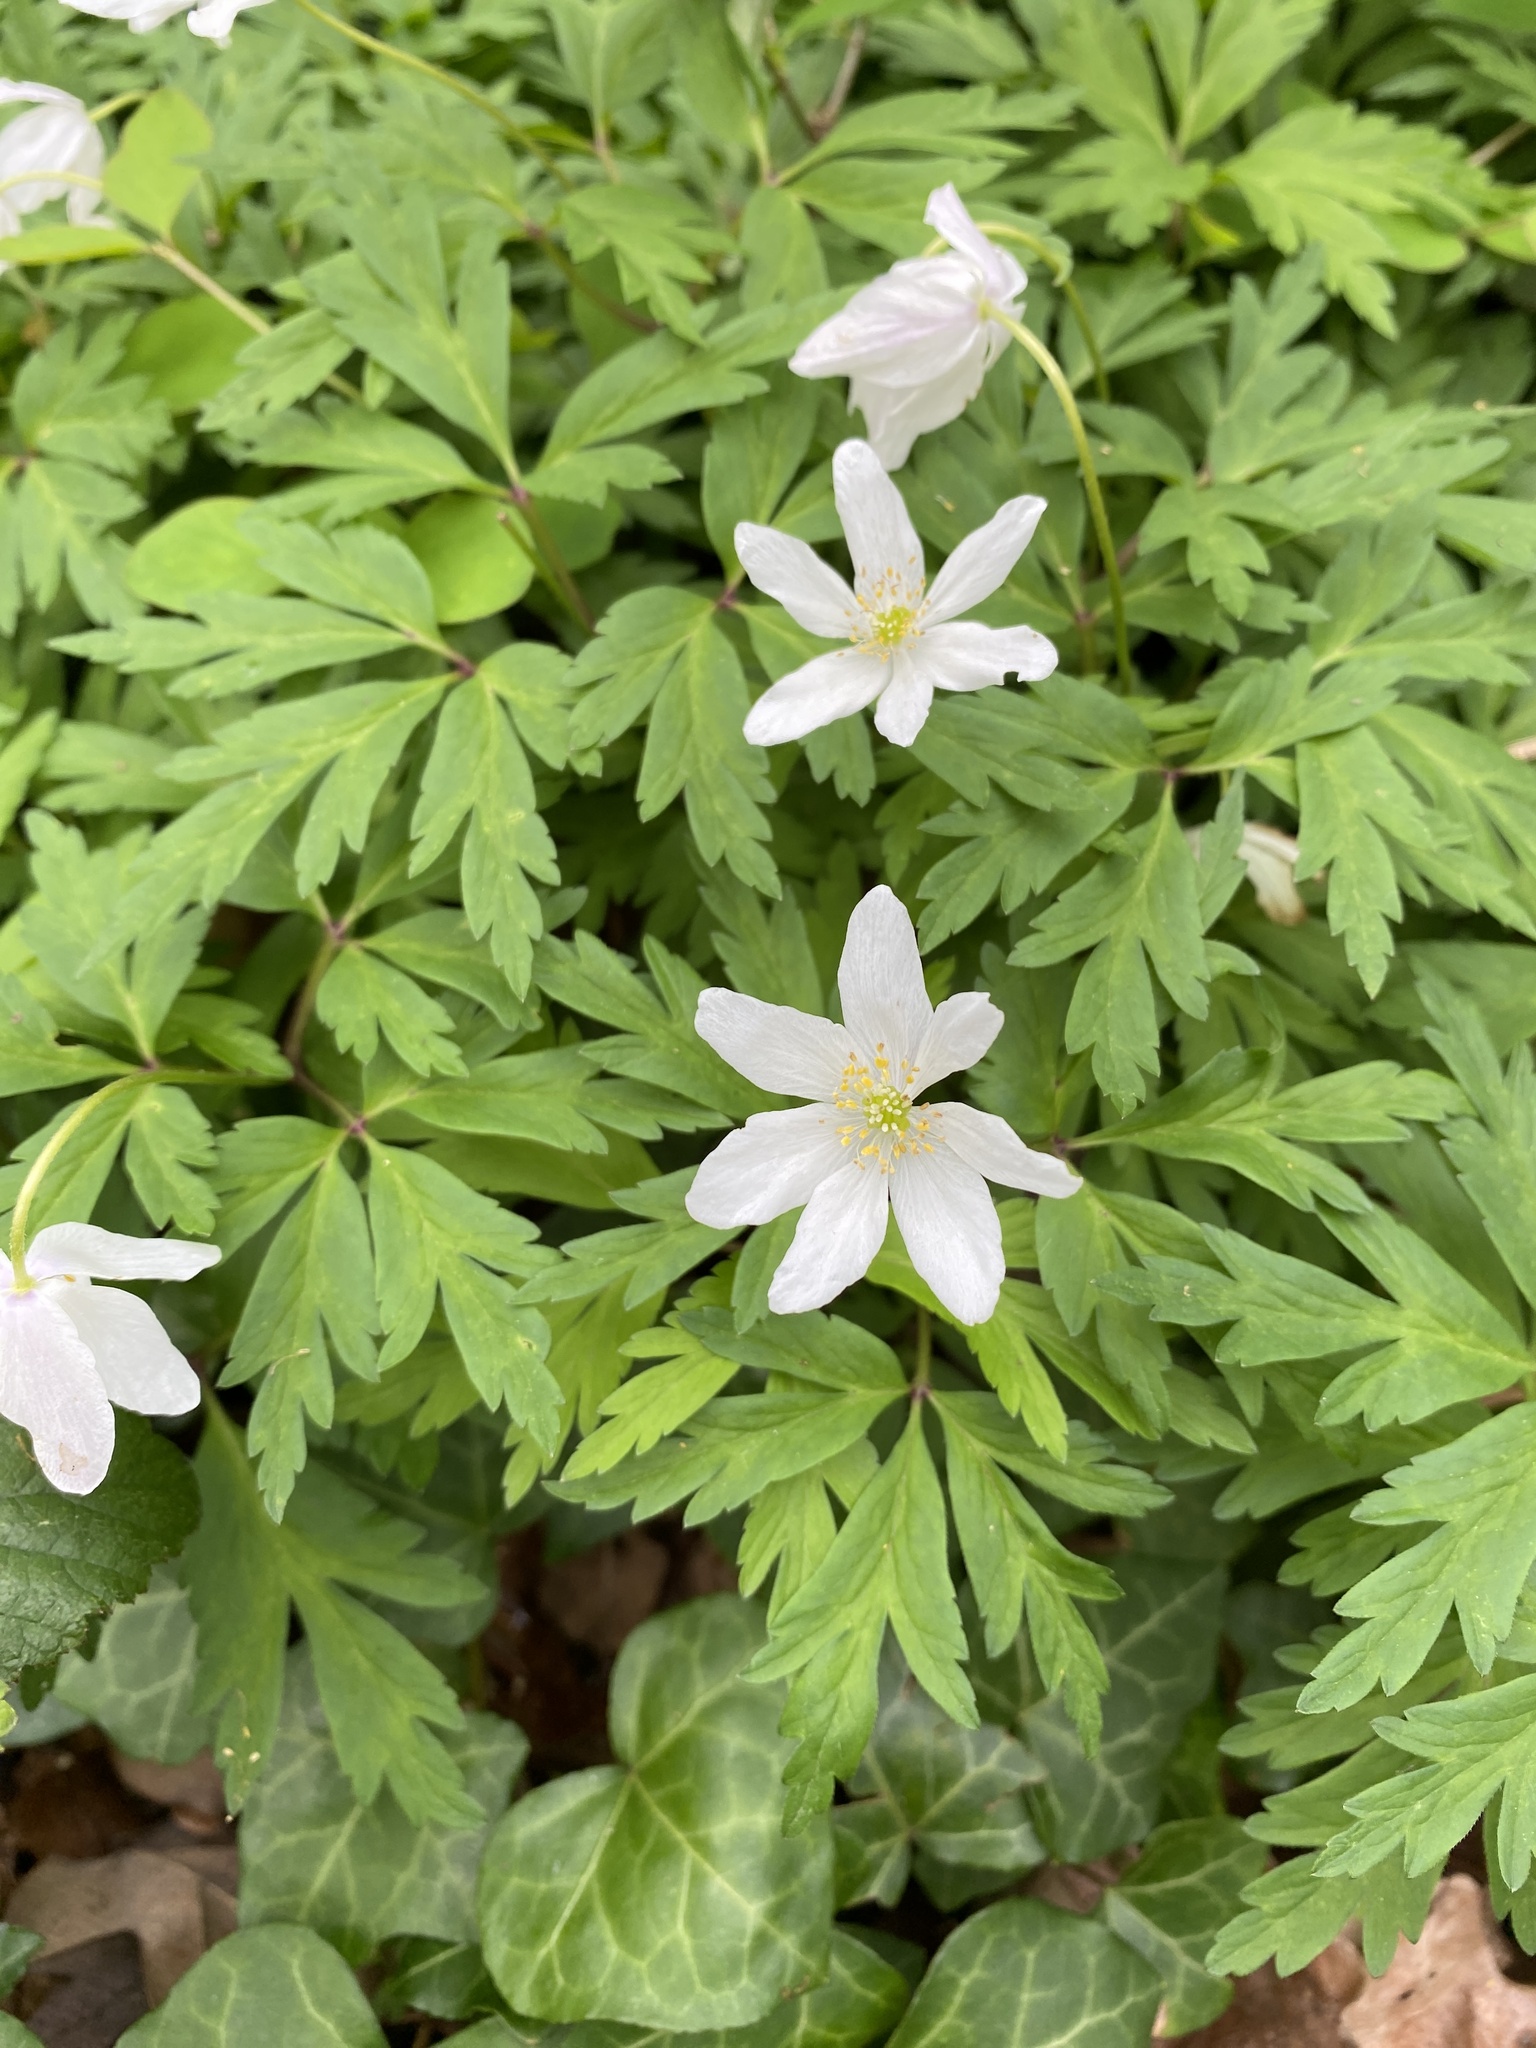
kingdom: Plantae
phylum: Tracheophyta
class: Magnoliopsida
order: Ranunculales
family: Ranunculaceae
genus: Anemone
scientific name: Anemone nemorosa
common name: Wood anemone
